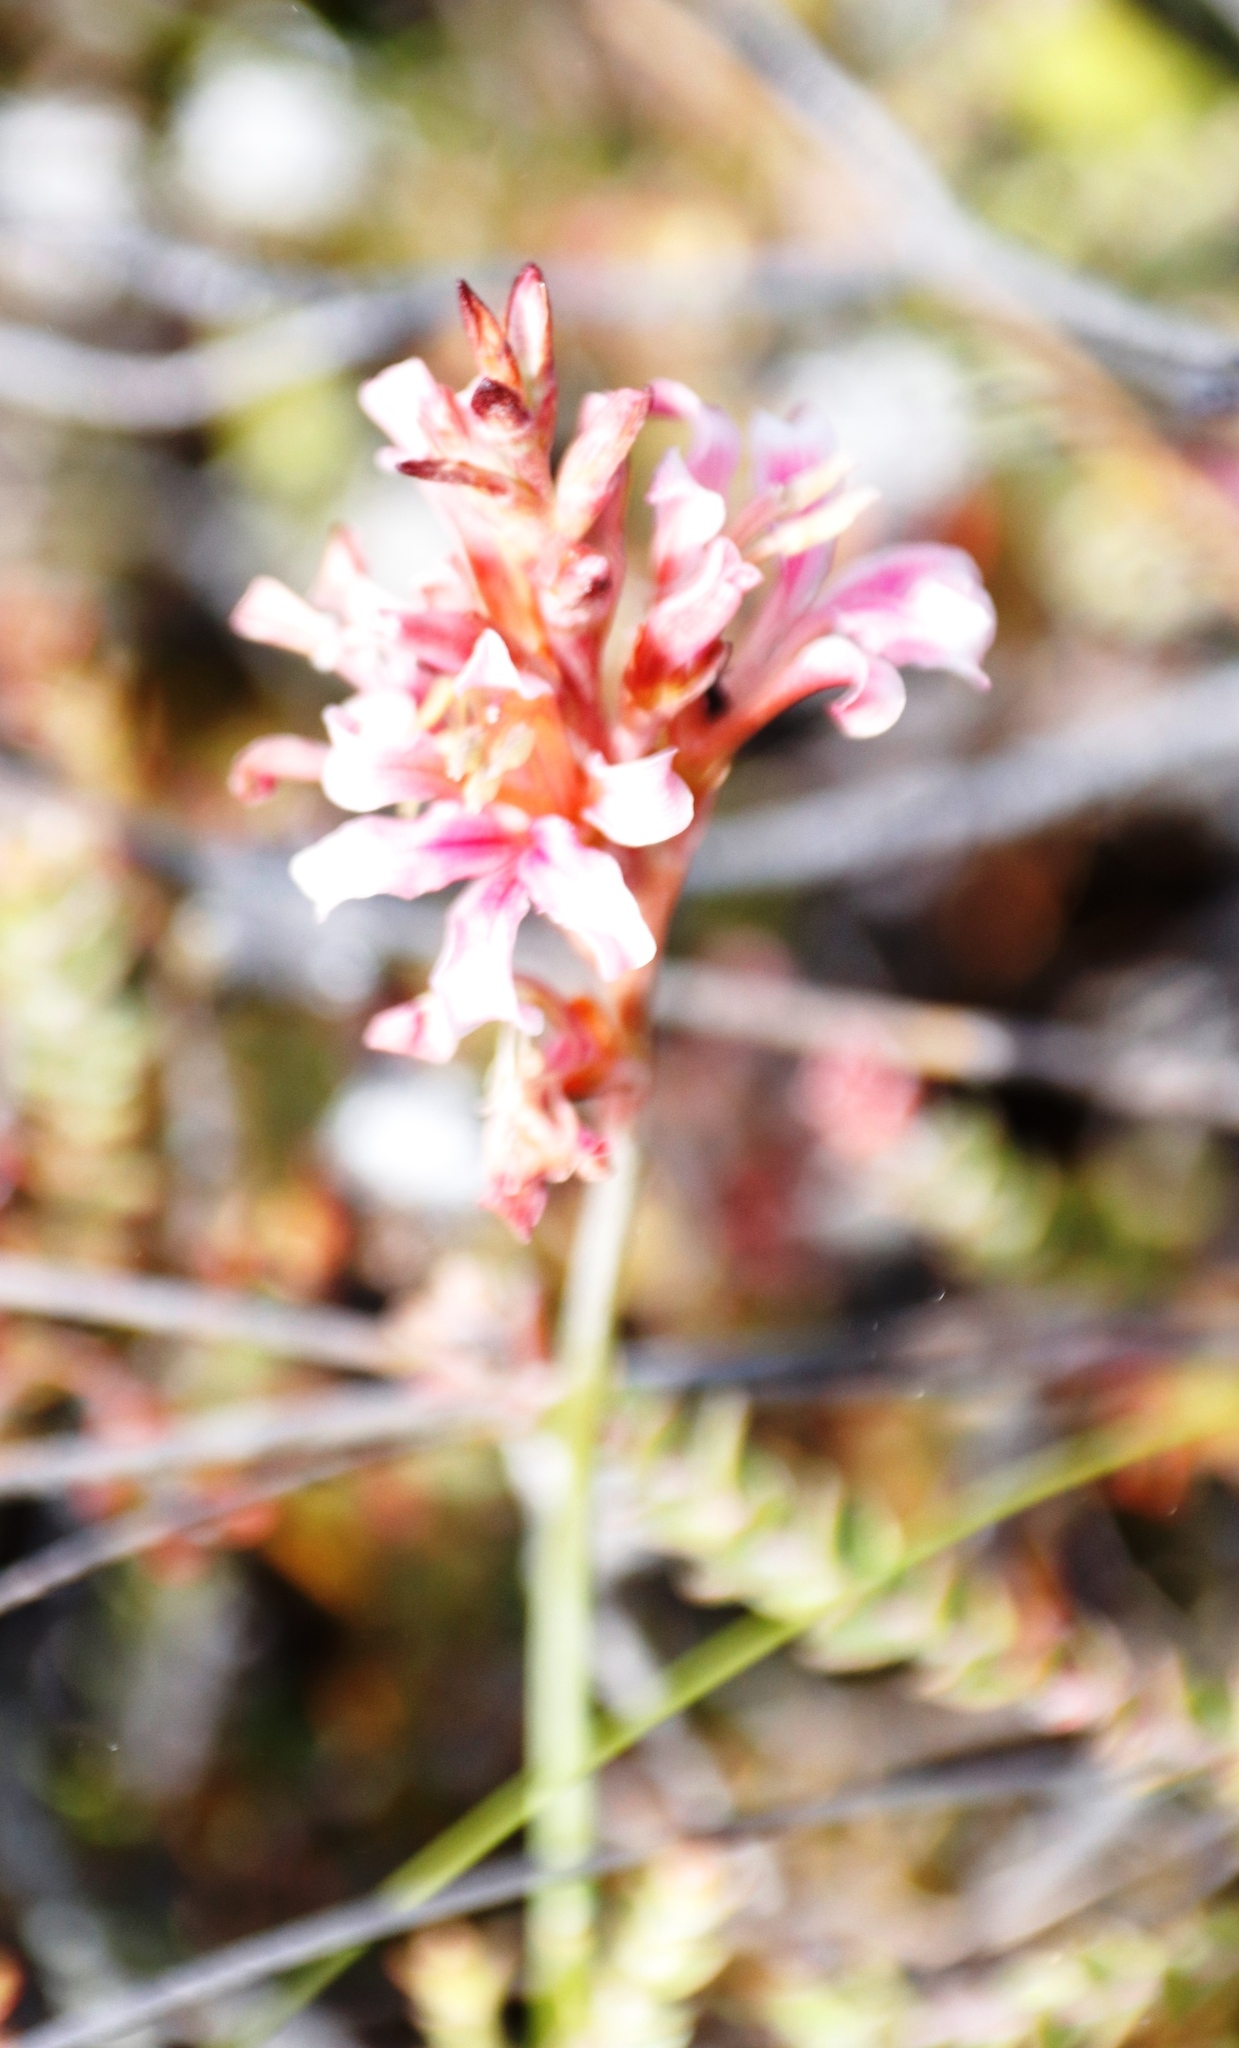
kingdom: Plantae
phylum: Tracheophyta
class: Liliopsida
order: Asparagales
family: Iridaceae
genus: Tritoniopsis
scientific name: Tritoniopsis dodii
